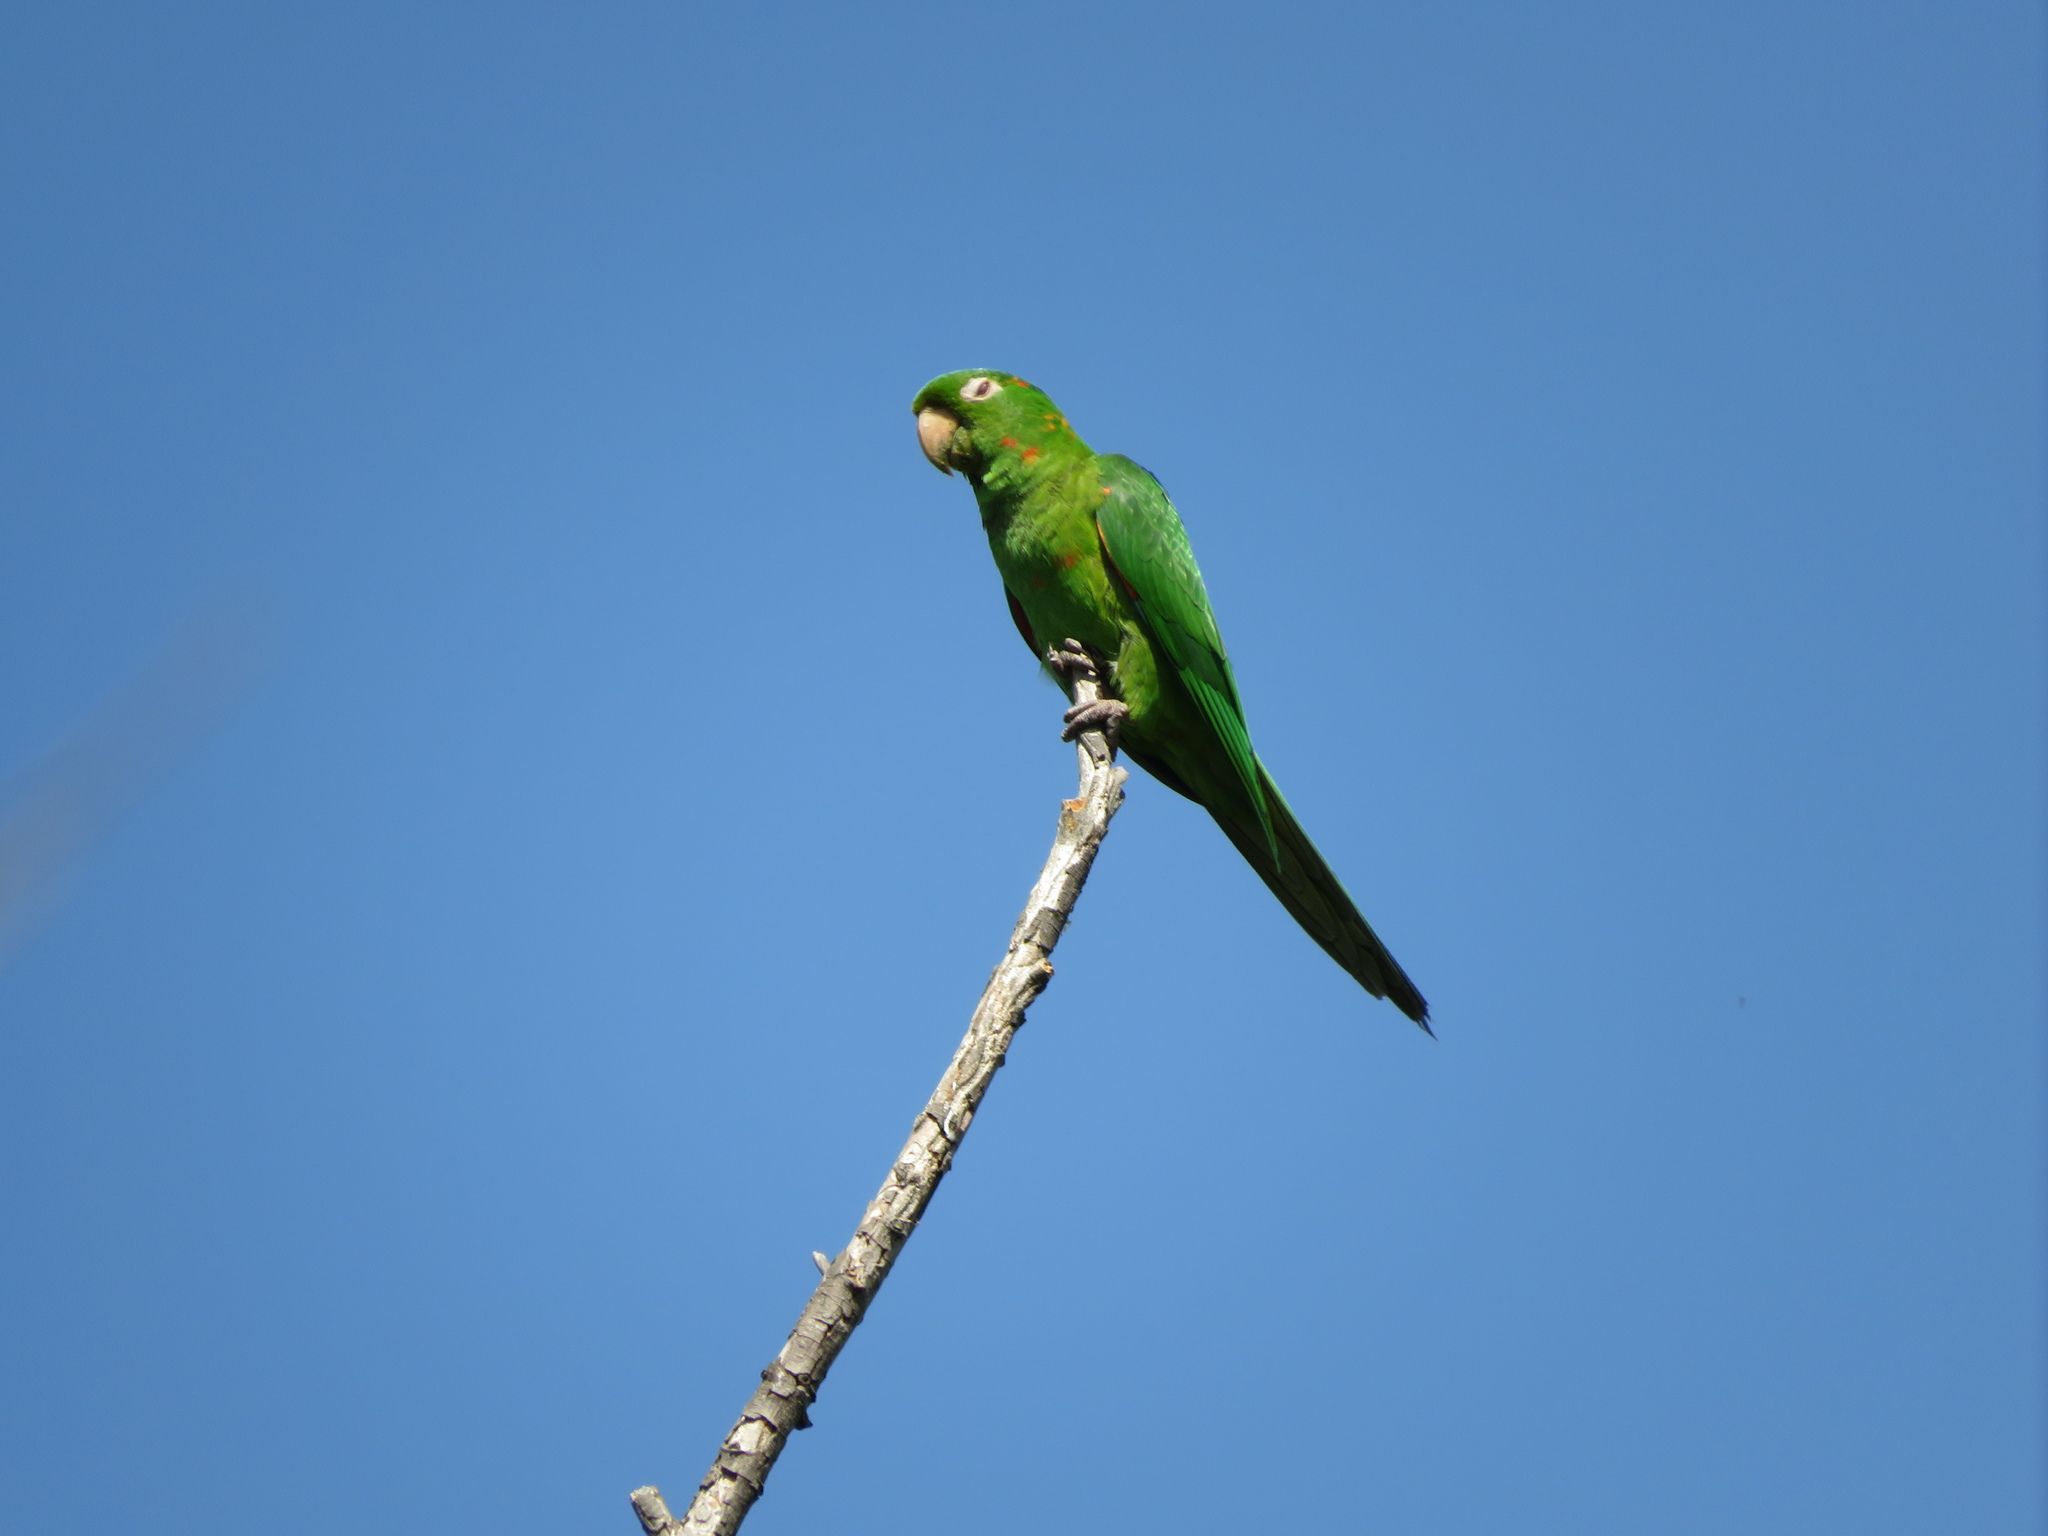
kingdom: Animalia
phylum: Chordata
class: Aves
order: Psittaciformes
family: Psittacidae
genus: Aratinga
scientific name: Aratinga leucophthalma
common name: White-eyed parakeet
